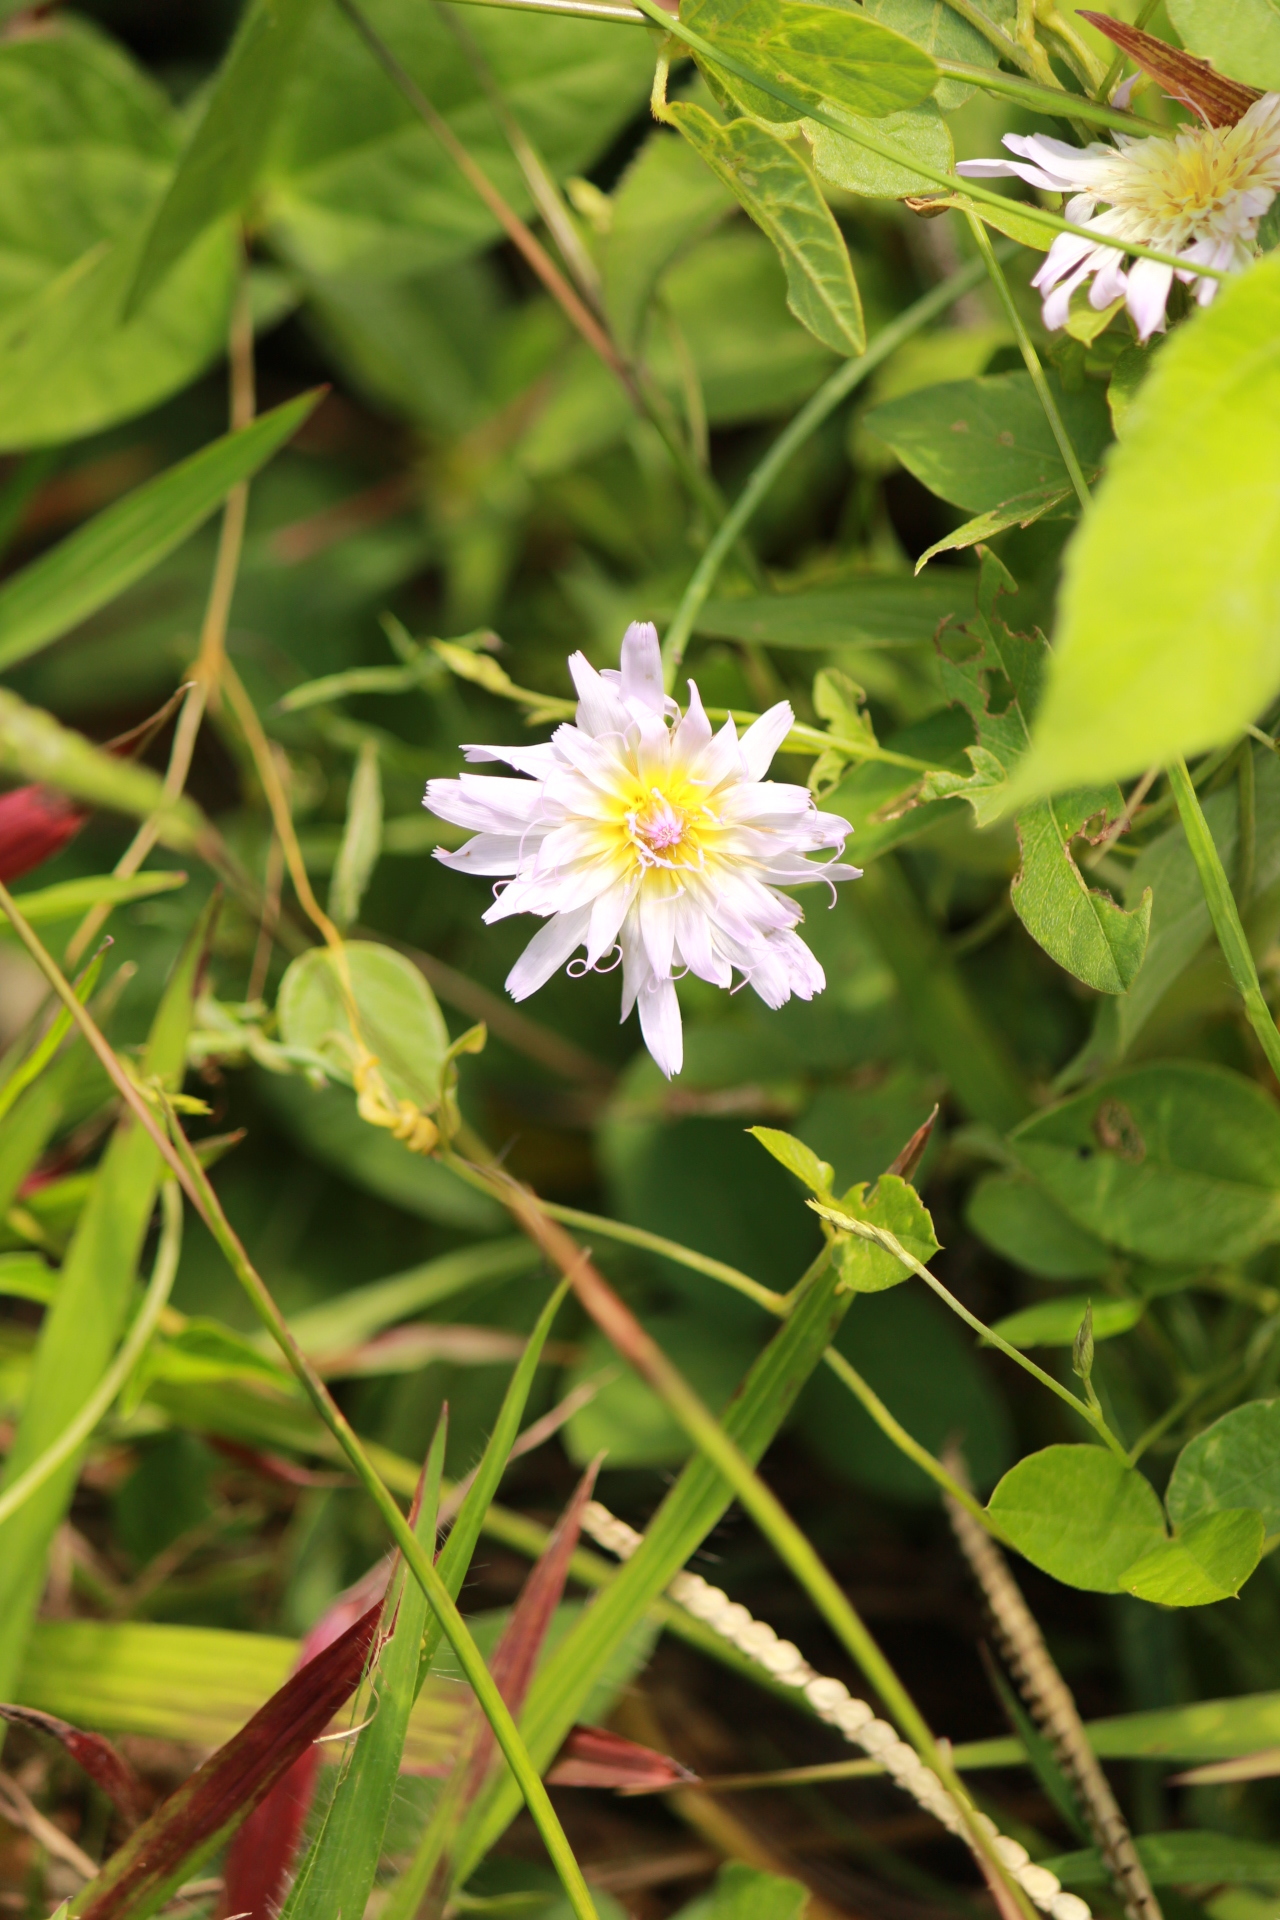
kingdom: Plantae
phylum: Tracheophyta
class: Magnoliopsida
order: Asterales
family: Asteraceae
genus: Pinaropappus
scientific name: Pinaropappus roseus
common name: Rock-lettuce
